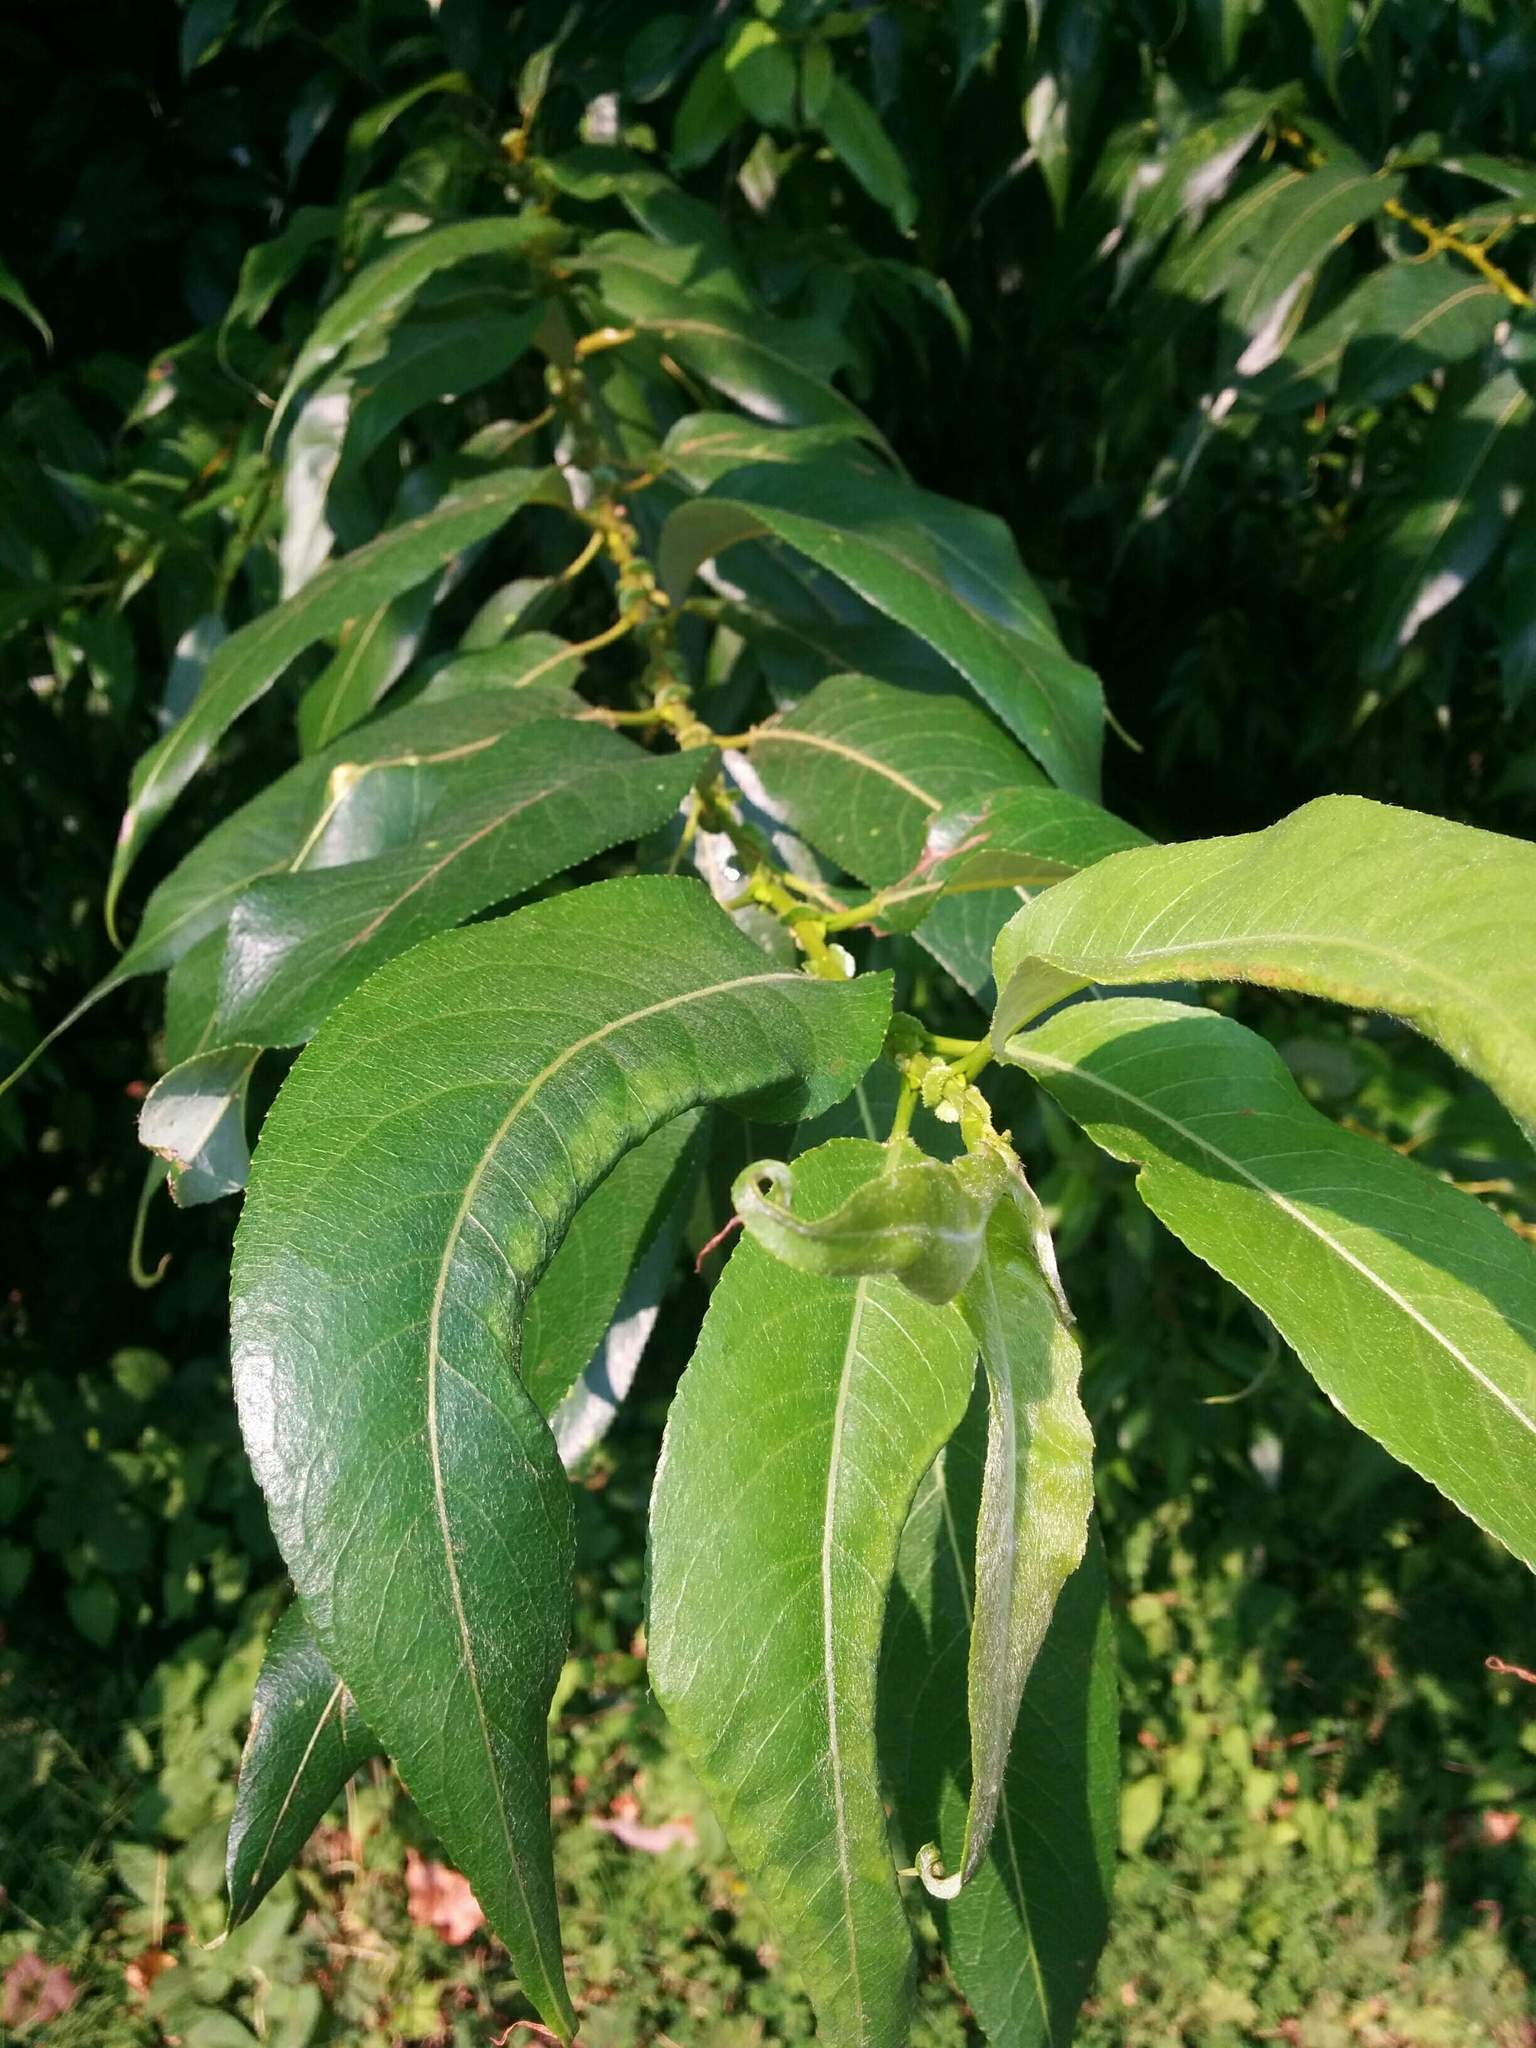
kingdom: Plantae
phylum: Tracheophyta
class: Magnoliopsida
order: Malpighiales
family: Salicaceae
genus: Salix
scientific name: Salix lucida
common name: Shining willow
